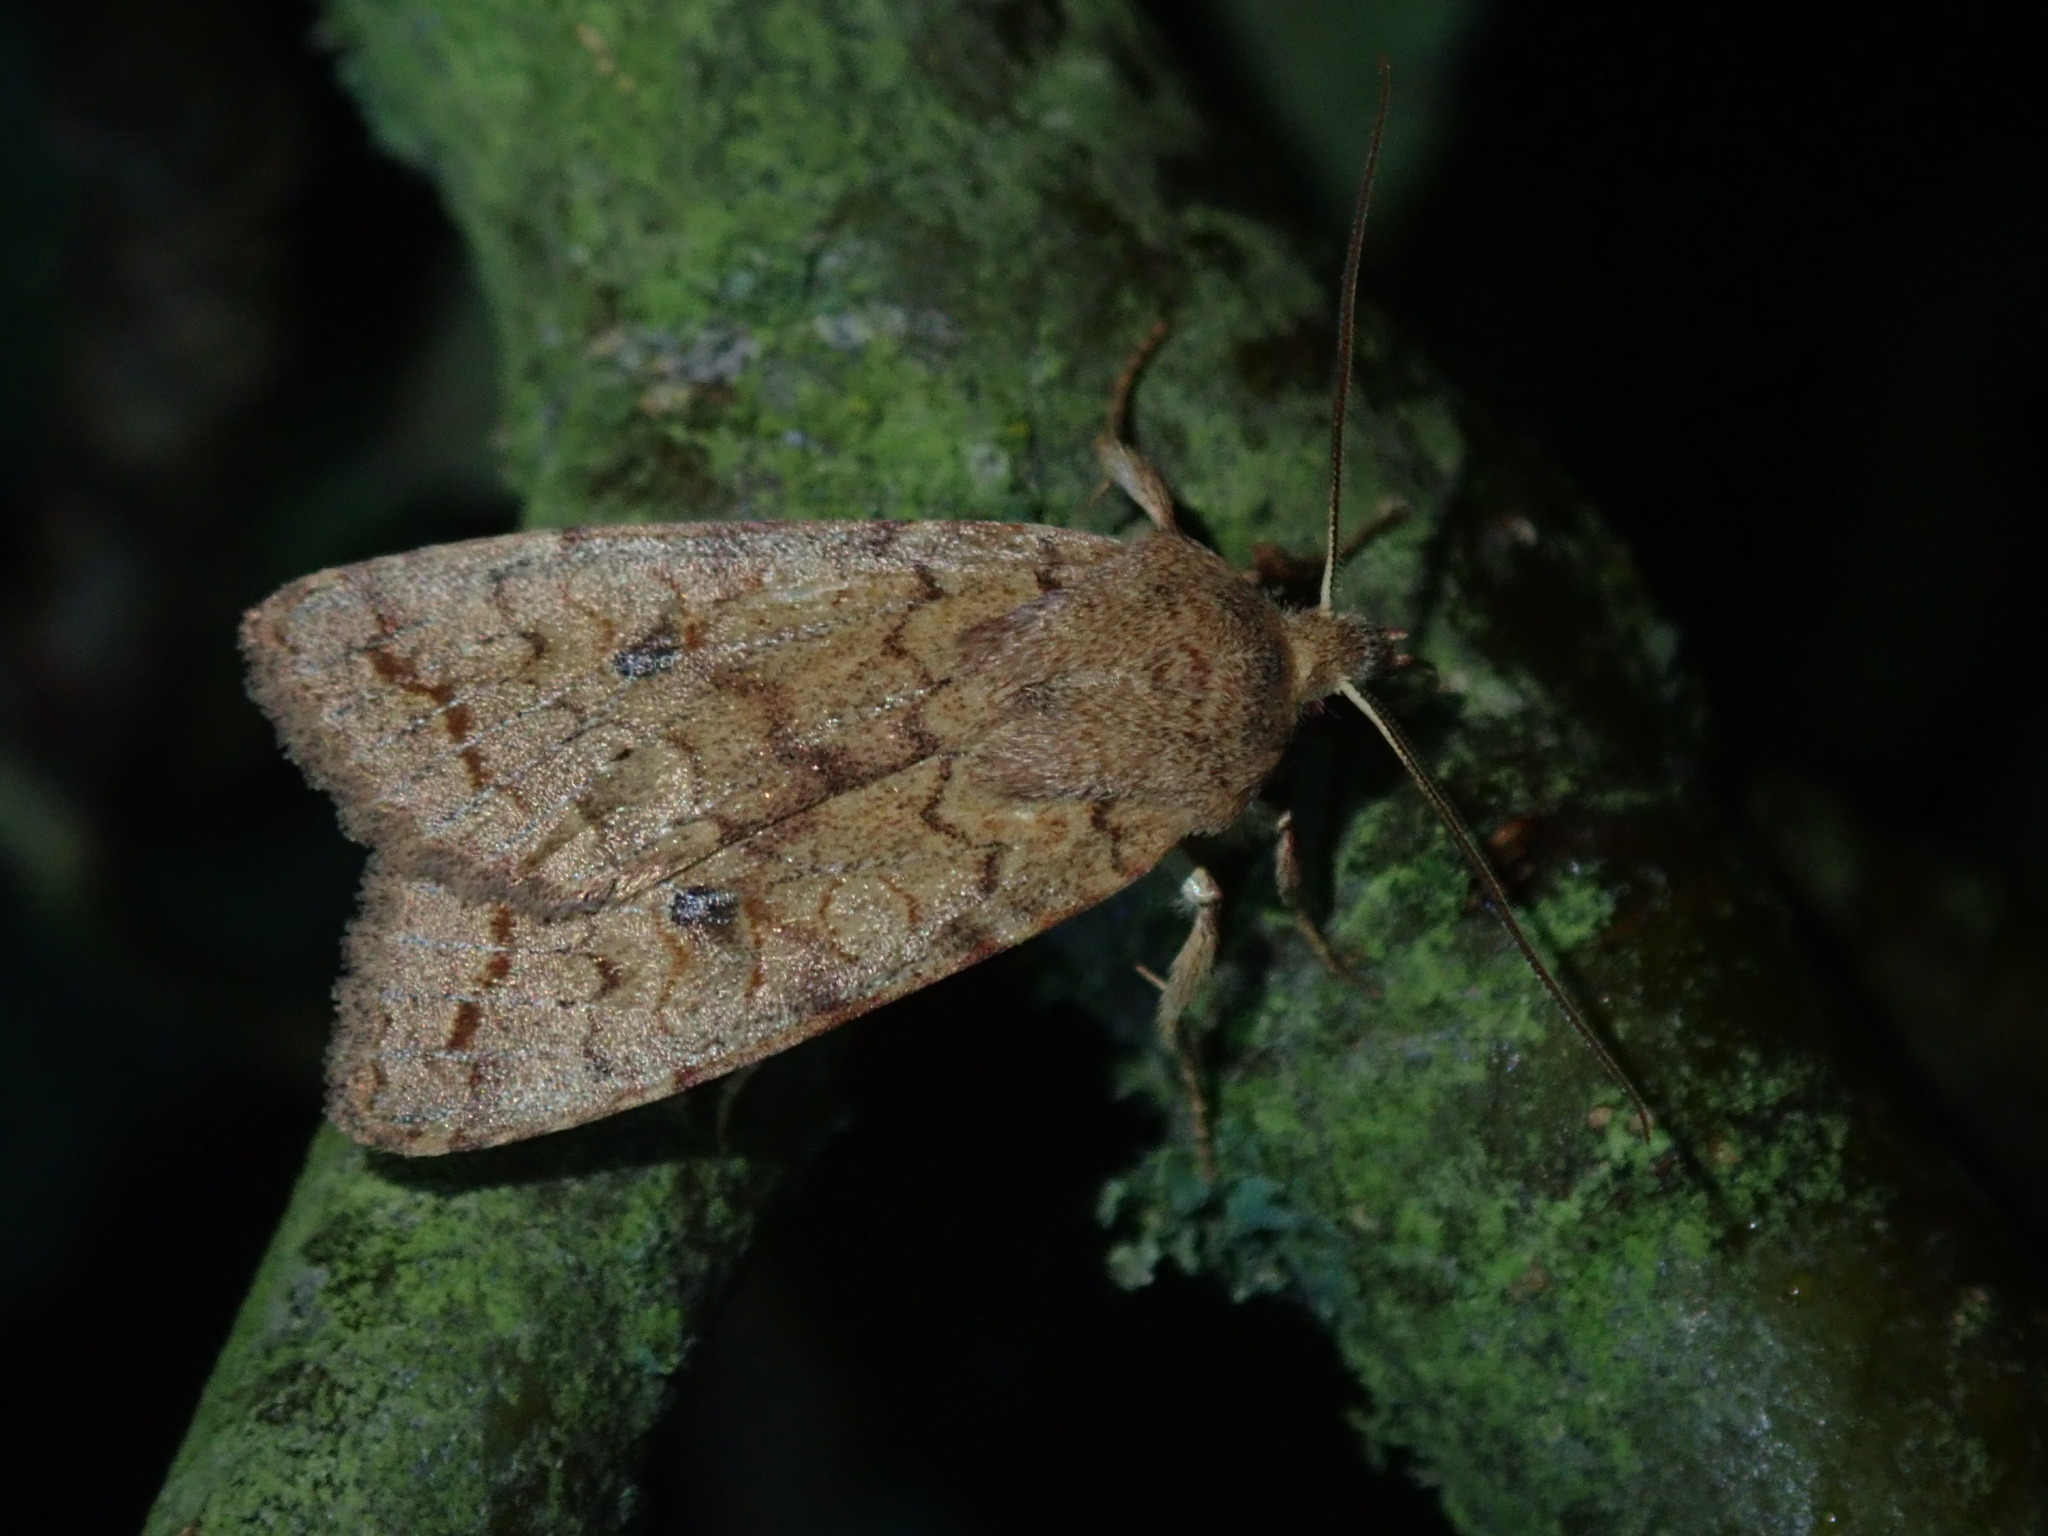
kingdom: Animalia
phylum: Arthropoda
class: Insecta
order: Lepidoptera
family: Noctuidae
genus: Sunira
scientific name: Sunira circellaris
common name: Brick
